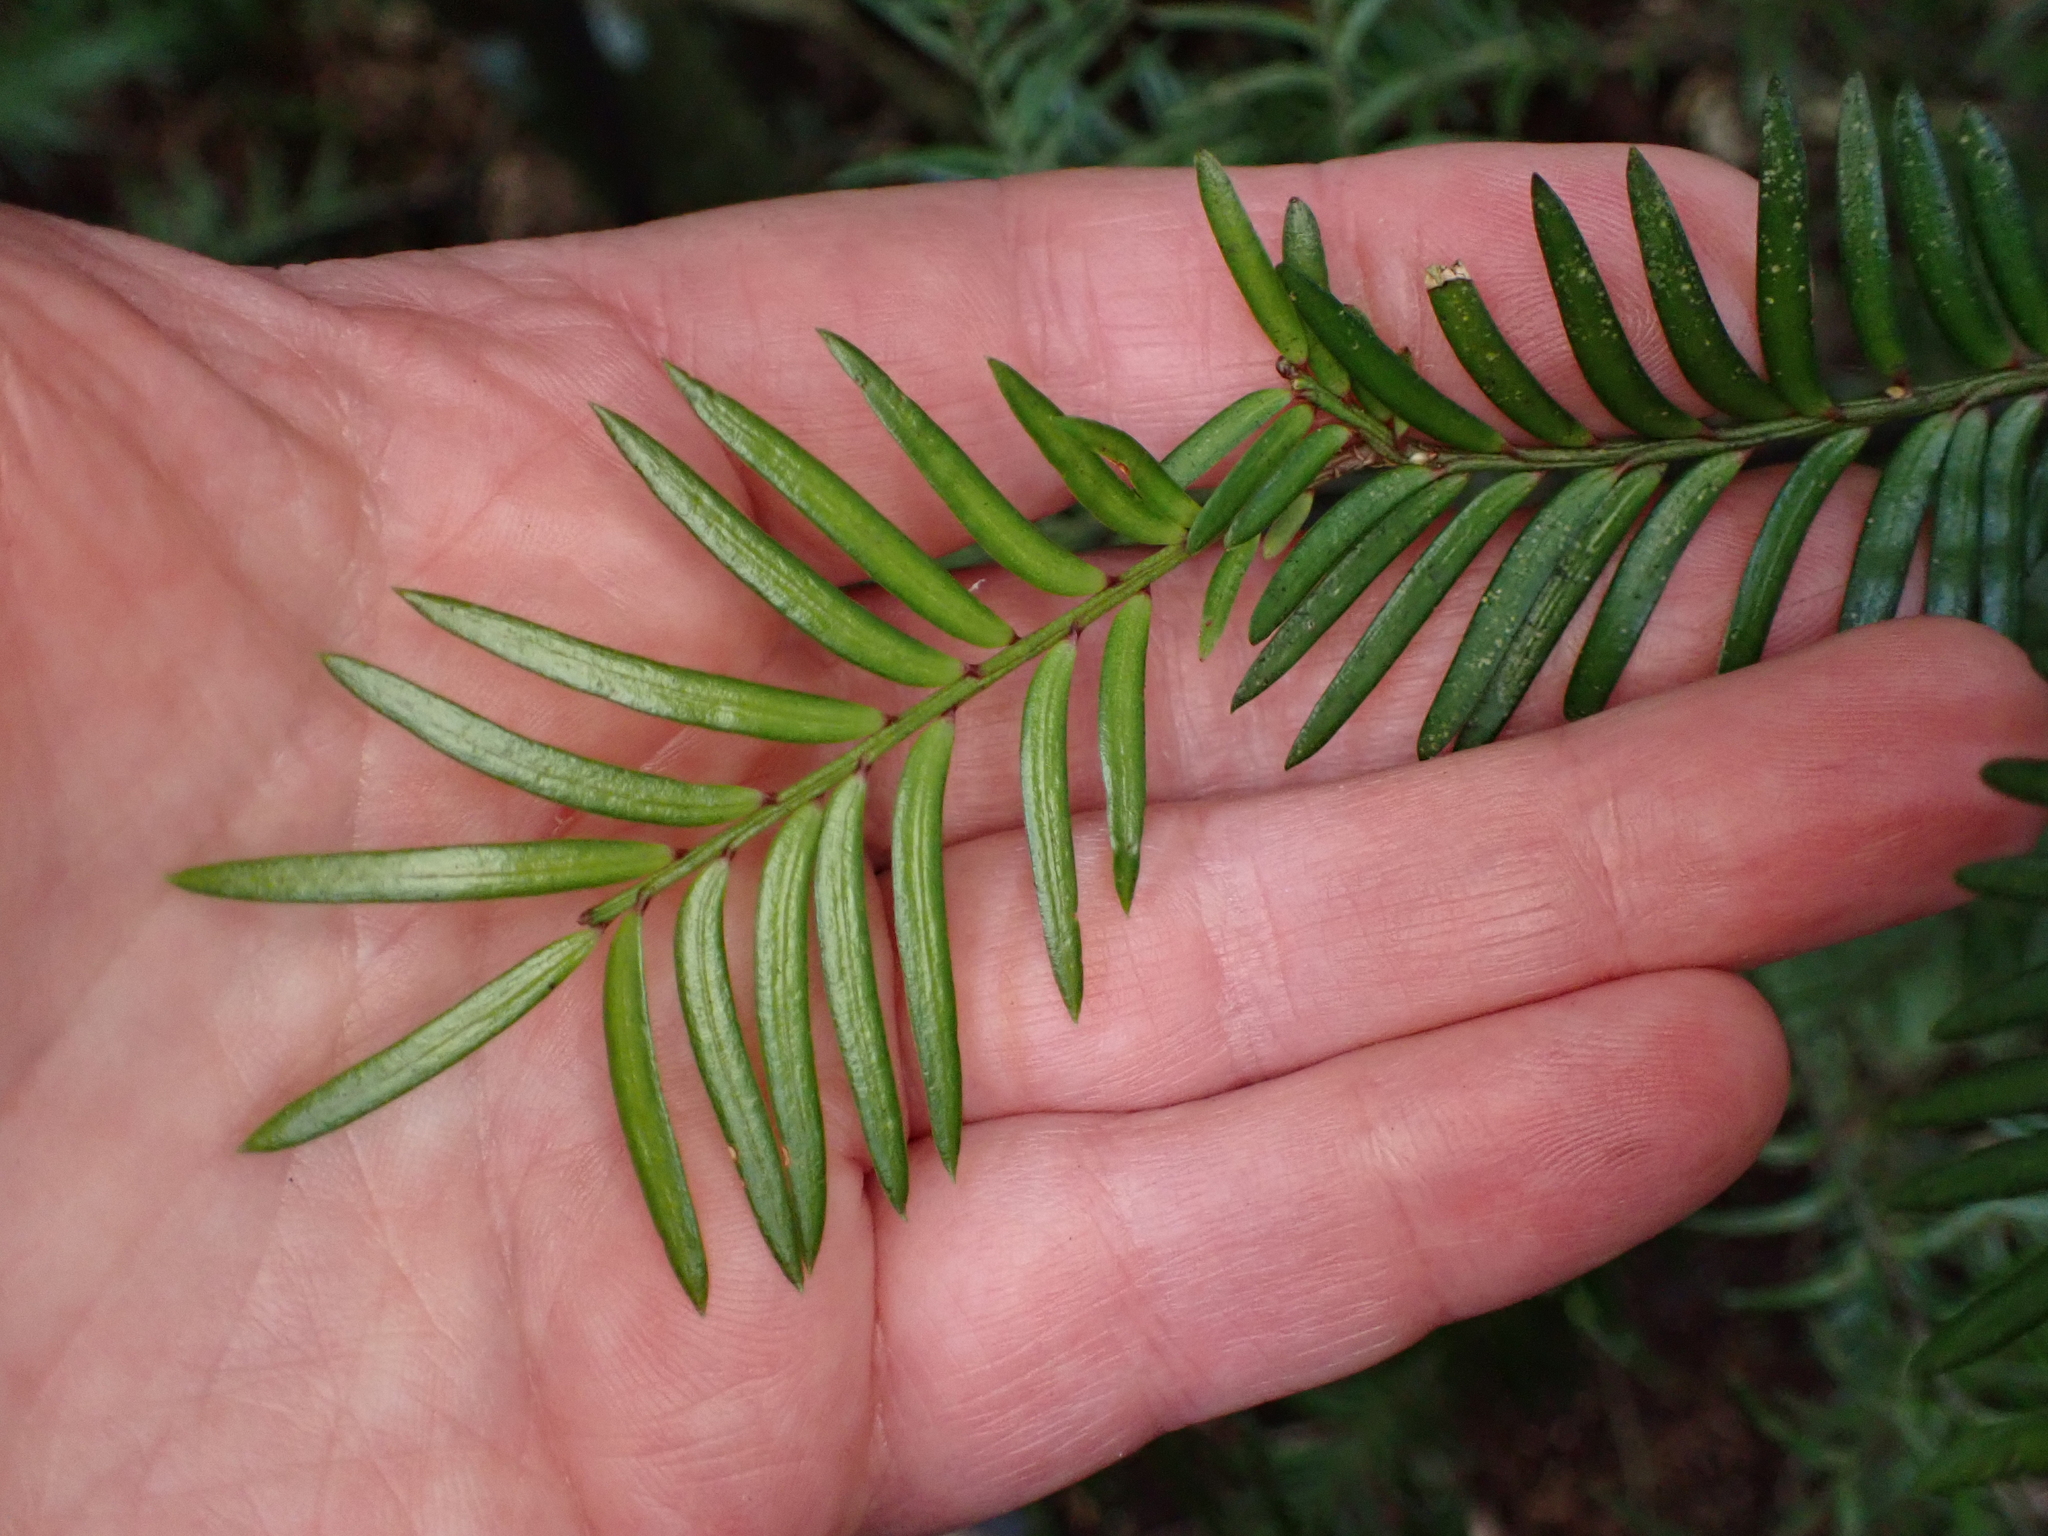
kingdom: Plantae
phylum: Tracheophyta
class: Pinopsida
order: Pinales
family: Podocarpaceae
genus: Prumnopitys
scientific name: Prumnopitys ferruginea
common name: Brown pine
